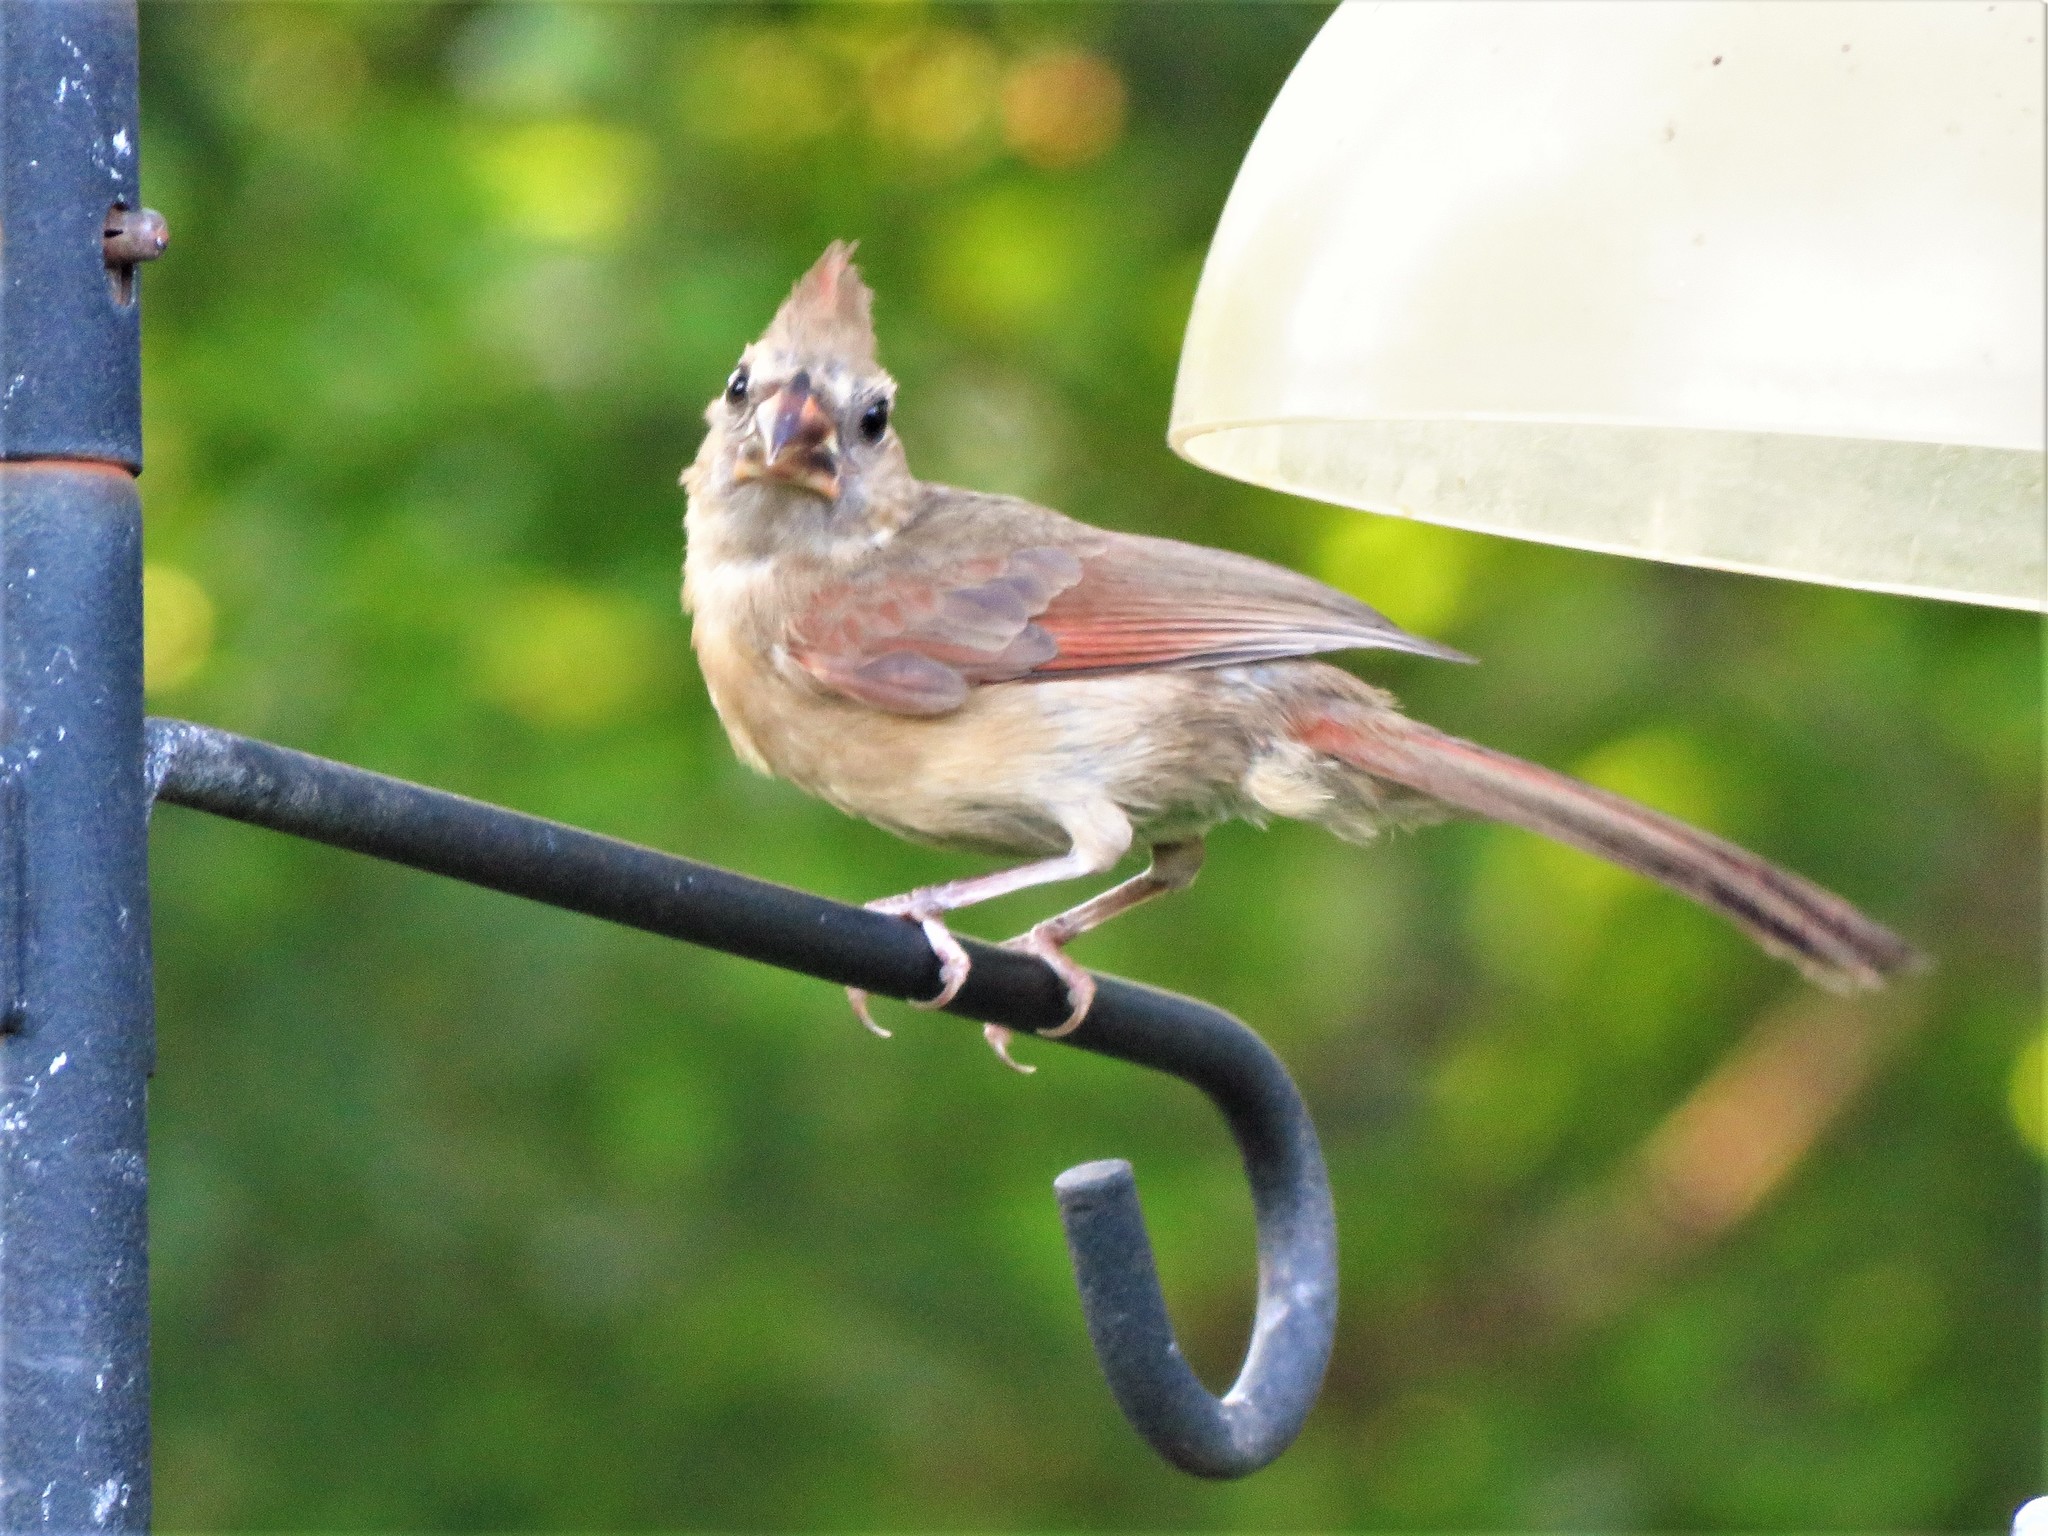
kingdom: Animalia
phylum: Chordata
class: Aves
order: Passeriformes
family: Cardinalidae
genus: Cardinalis
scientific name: Cardinalis cardinalis
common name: Northern cardinal
